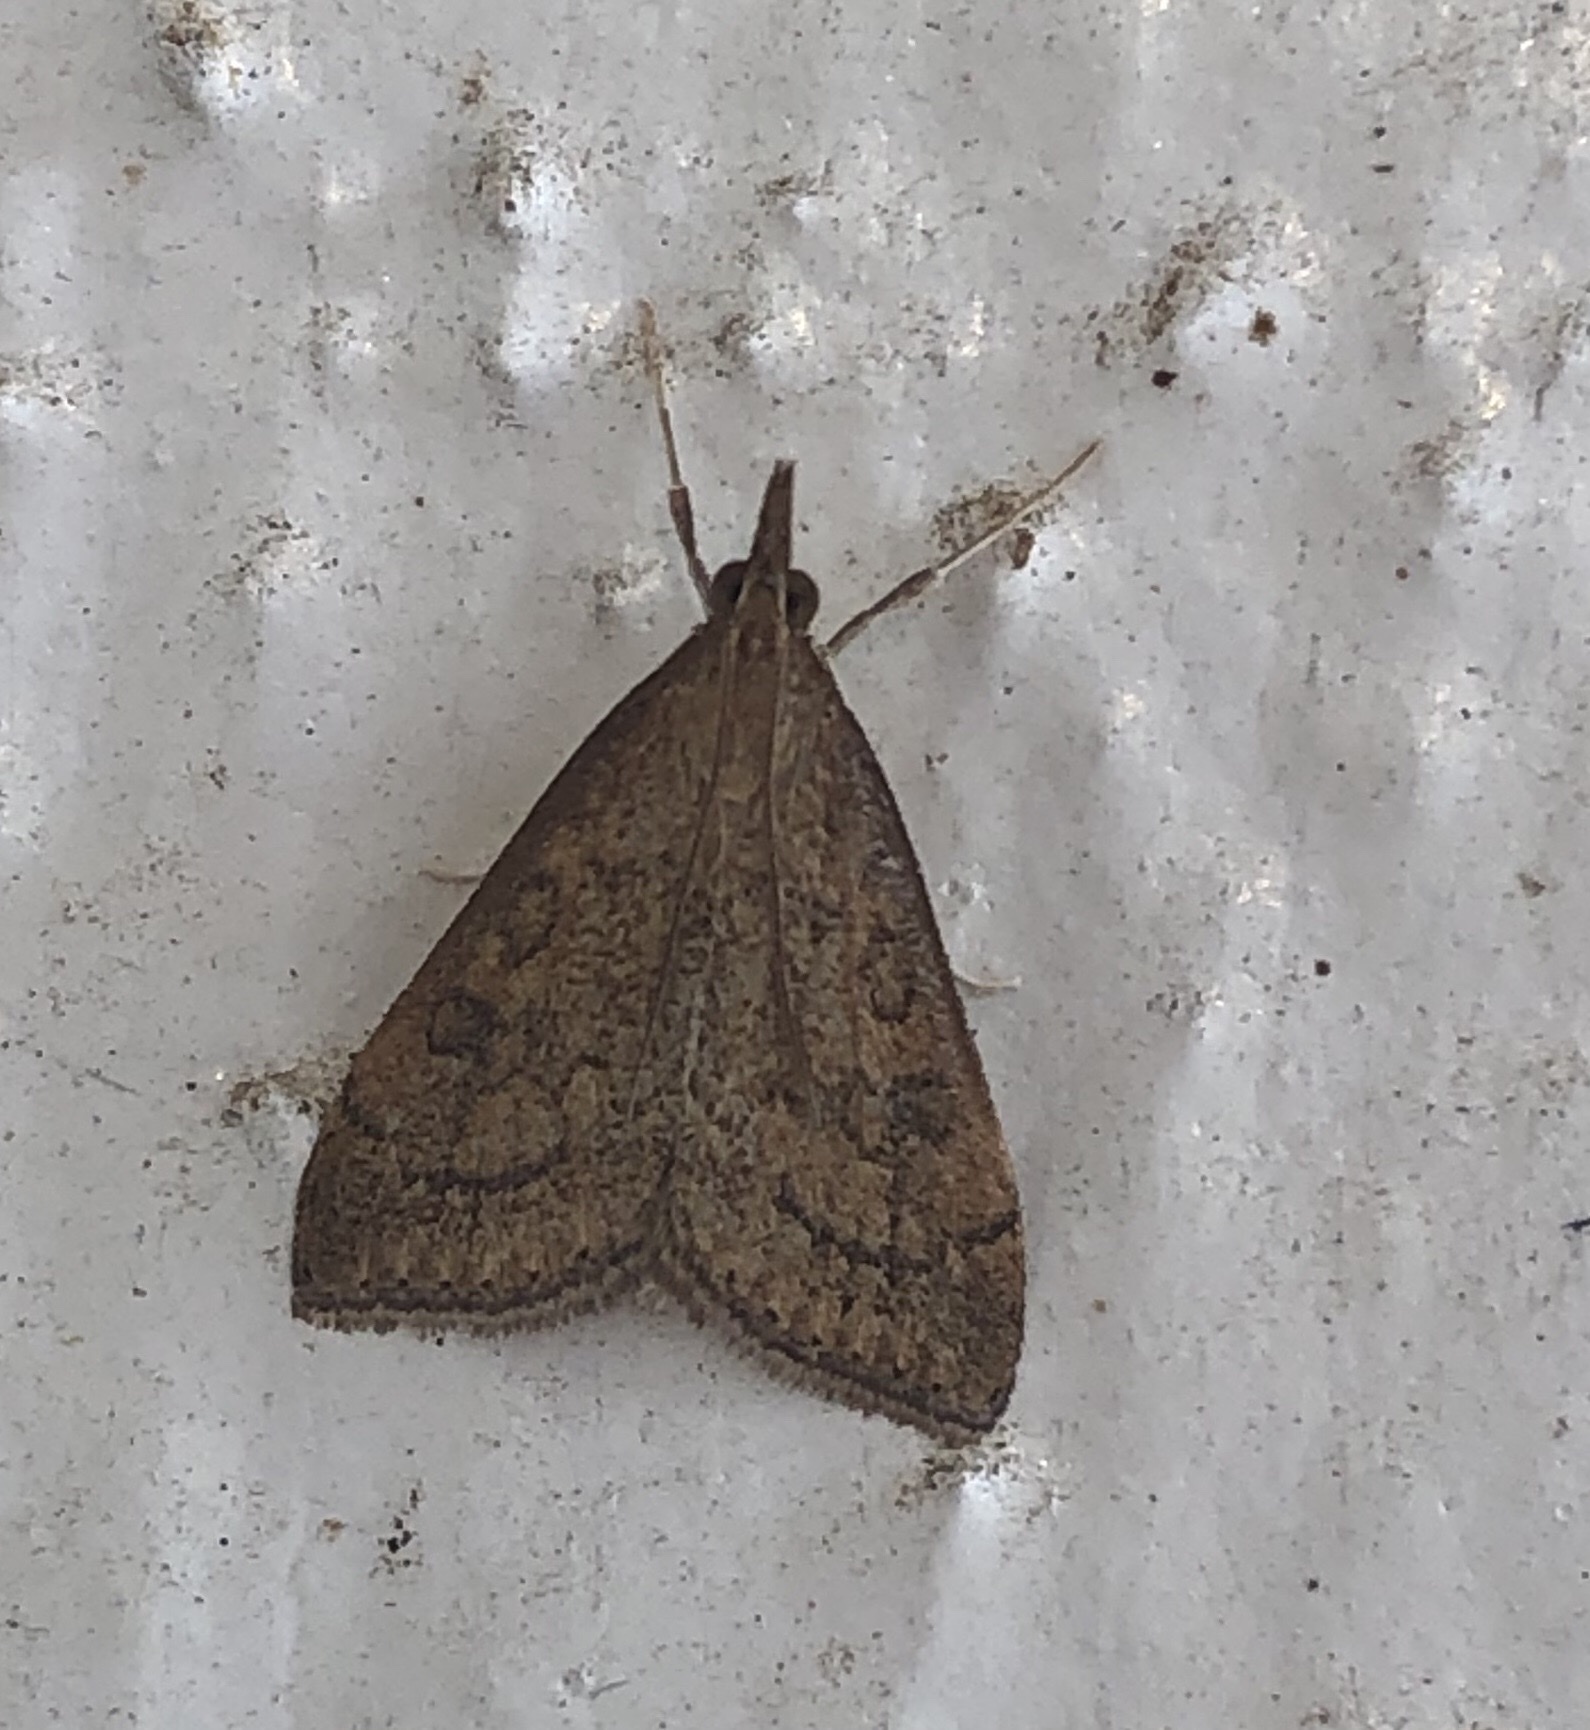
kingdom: Animalia
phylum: Arthropoda
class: Insecta
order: Lepidoptera
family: Crambidae
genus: Udea
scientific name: Udea rubigalis
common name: Celery leaftier moth
